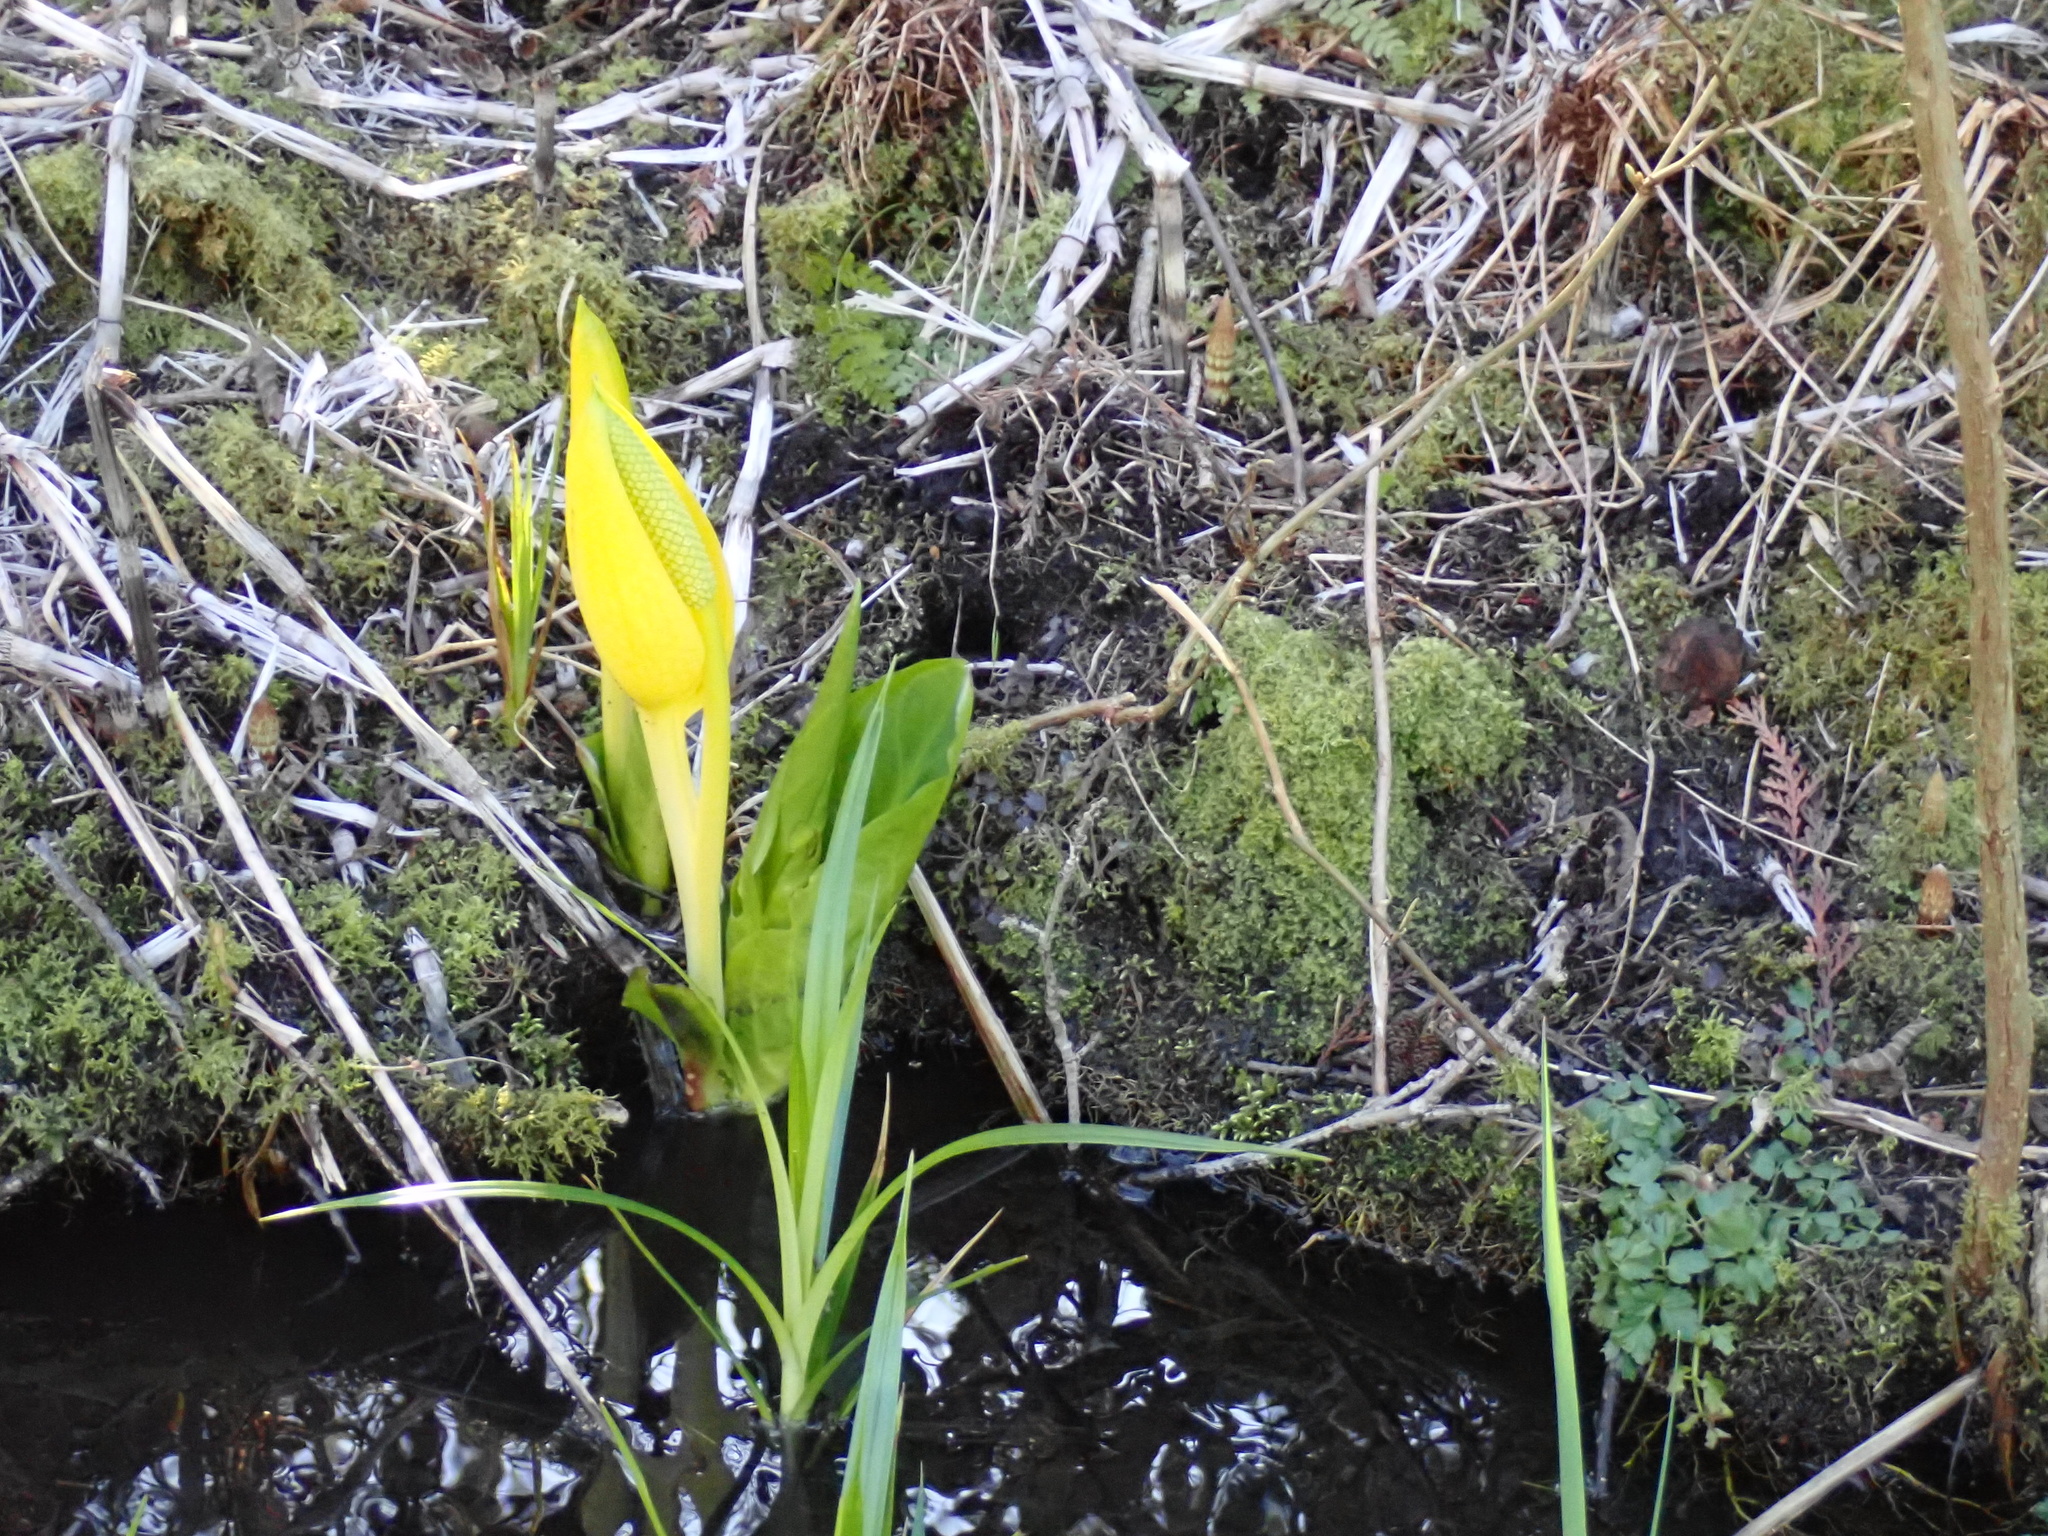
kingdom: Plantae
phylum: Tracheophyta
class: Liliopsida
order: Alismatales
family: Araceae
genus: Lysichiton
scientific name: Lysichiton americanus
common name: American skunk cabbage
